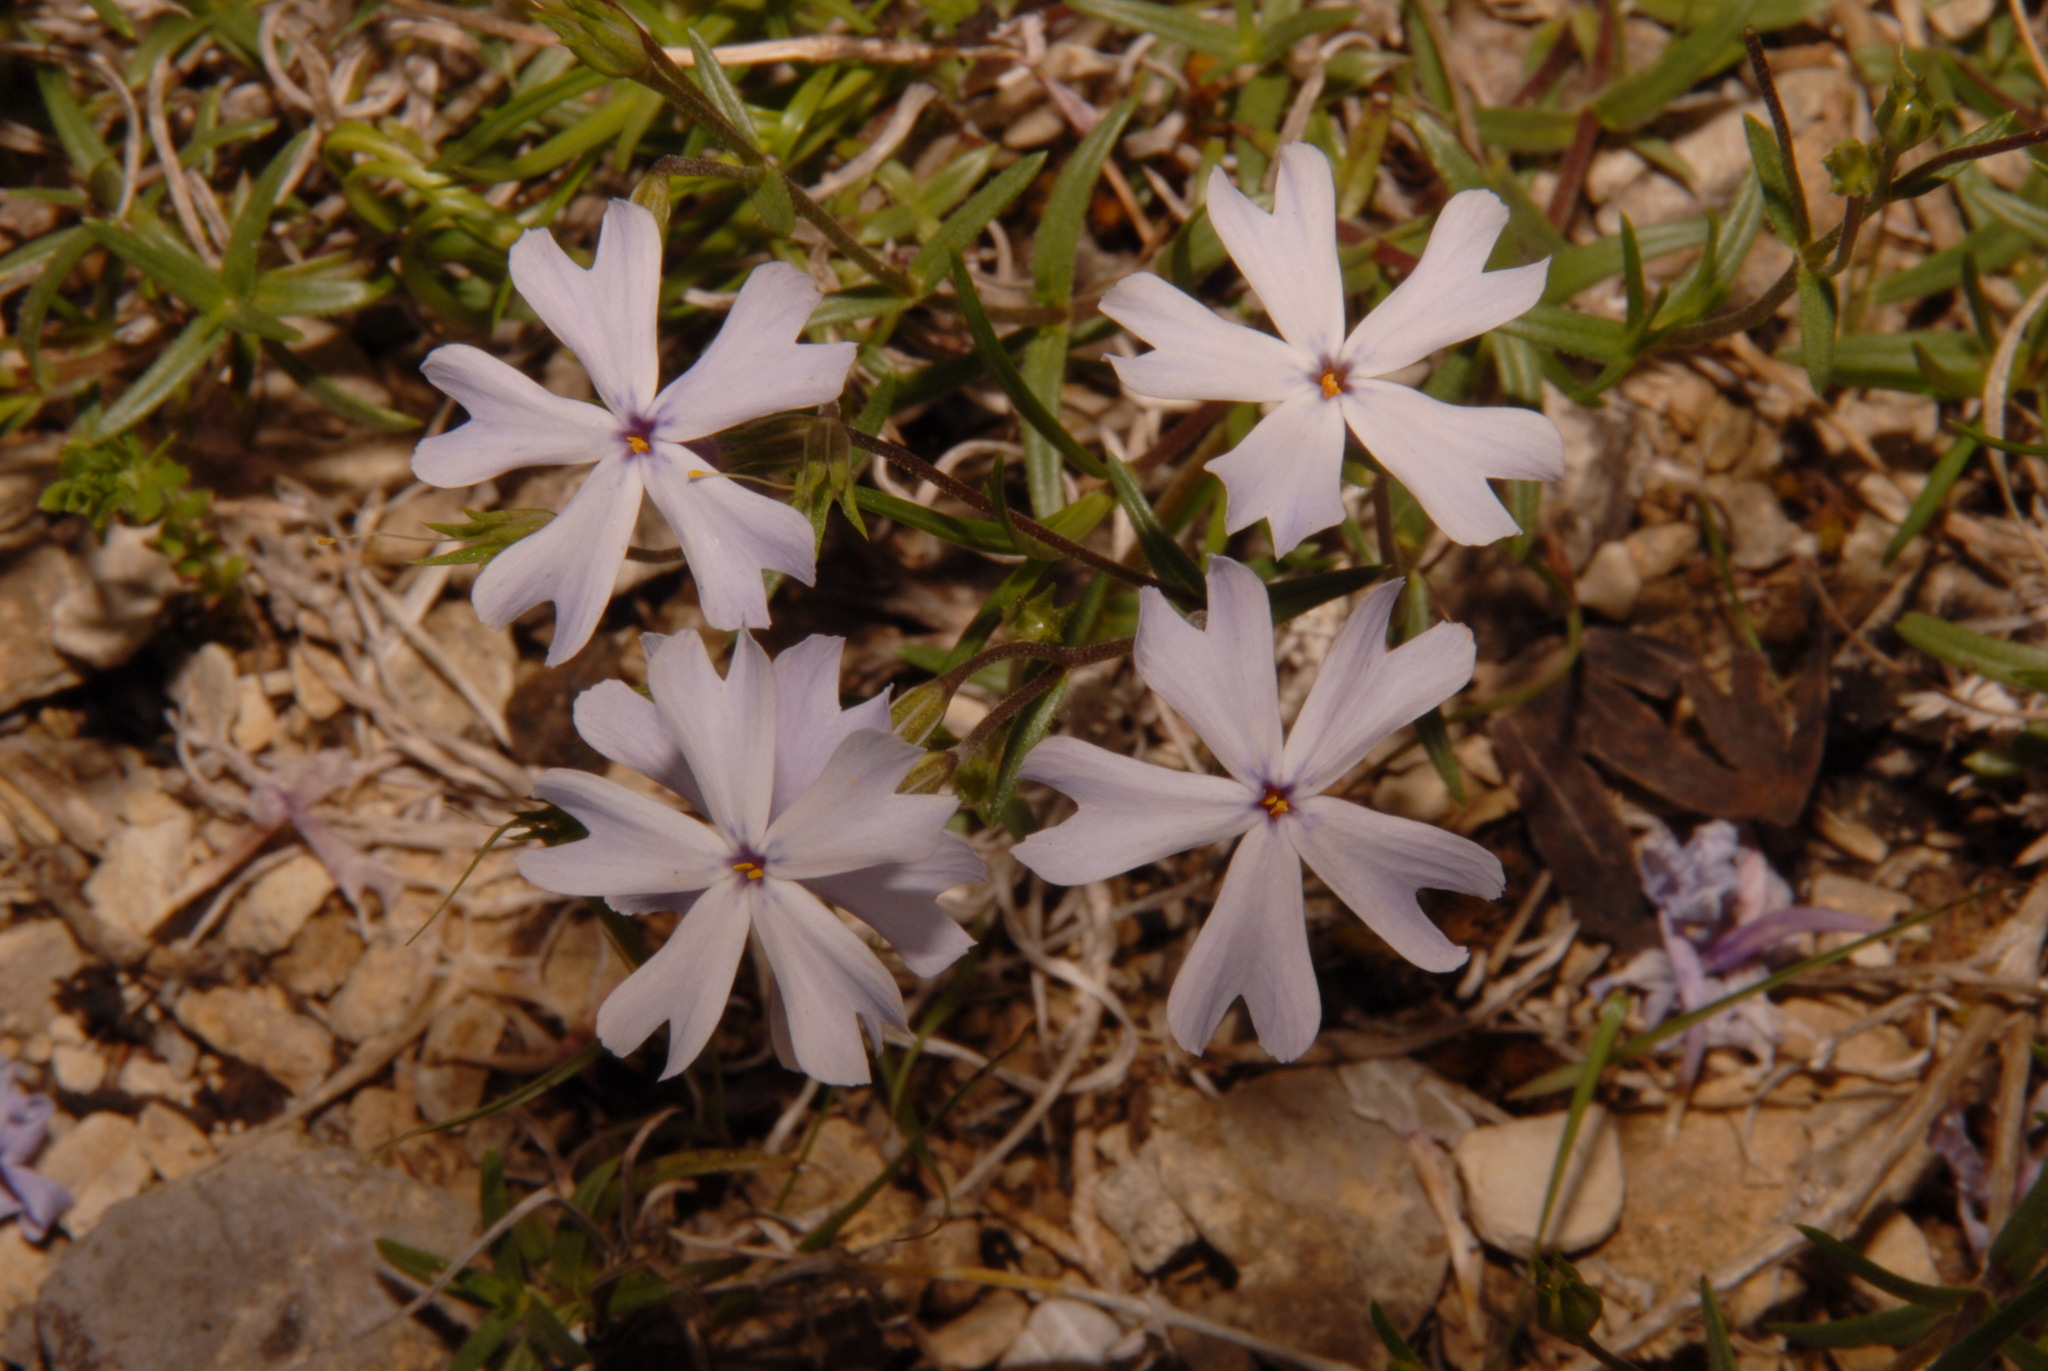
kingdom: Plantae
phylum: Tracheophyta
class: Magnoliopsida
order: Ericales
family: Polemoniaceae
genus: Phlox
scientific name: Phlox bifida
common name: Sand phlox
